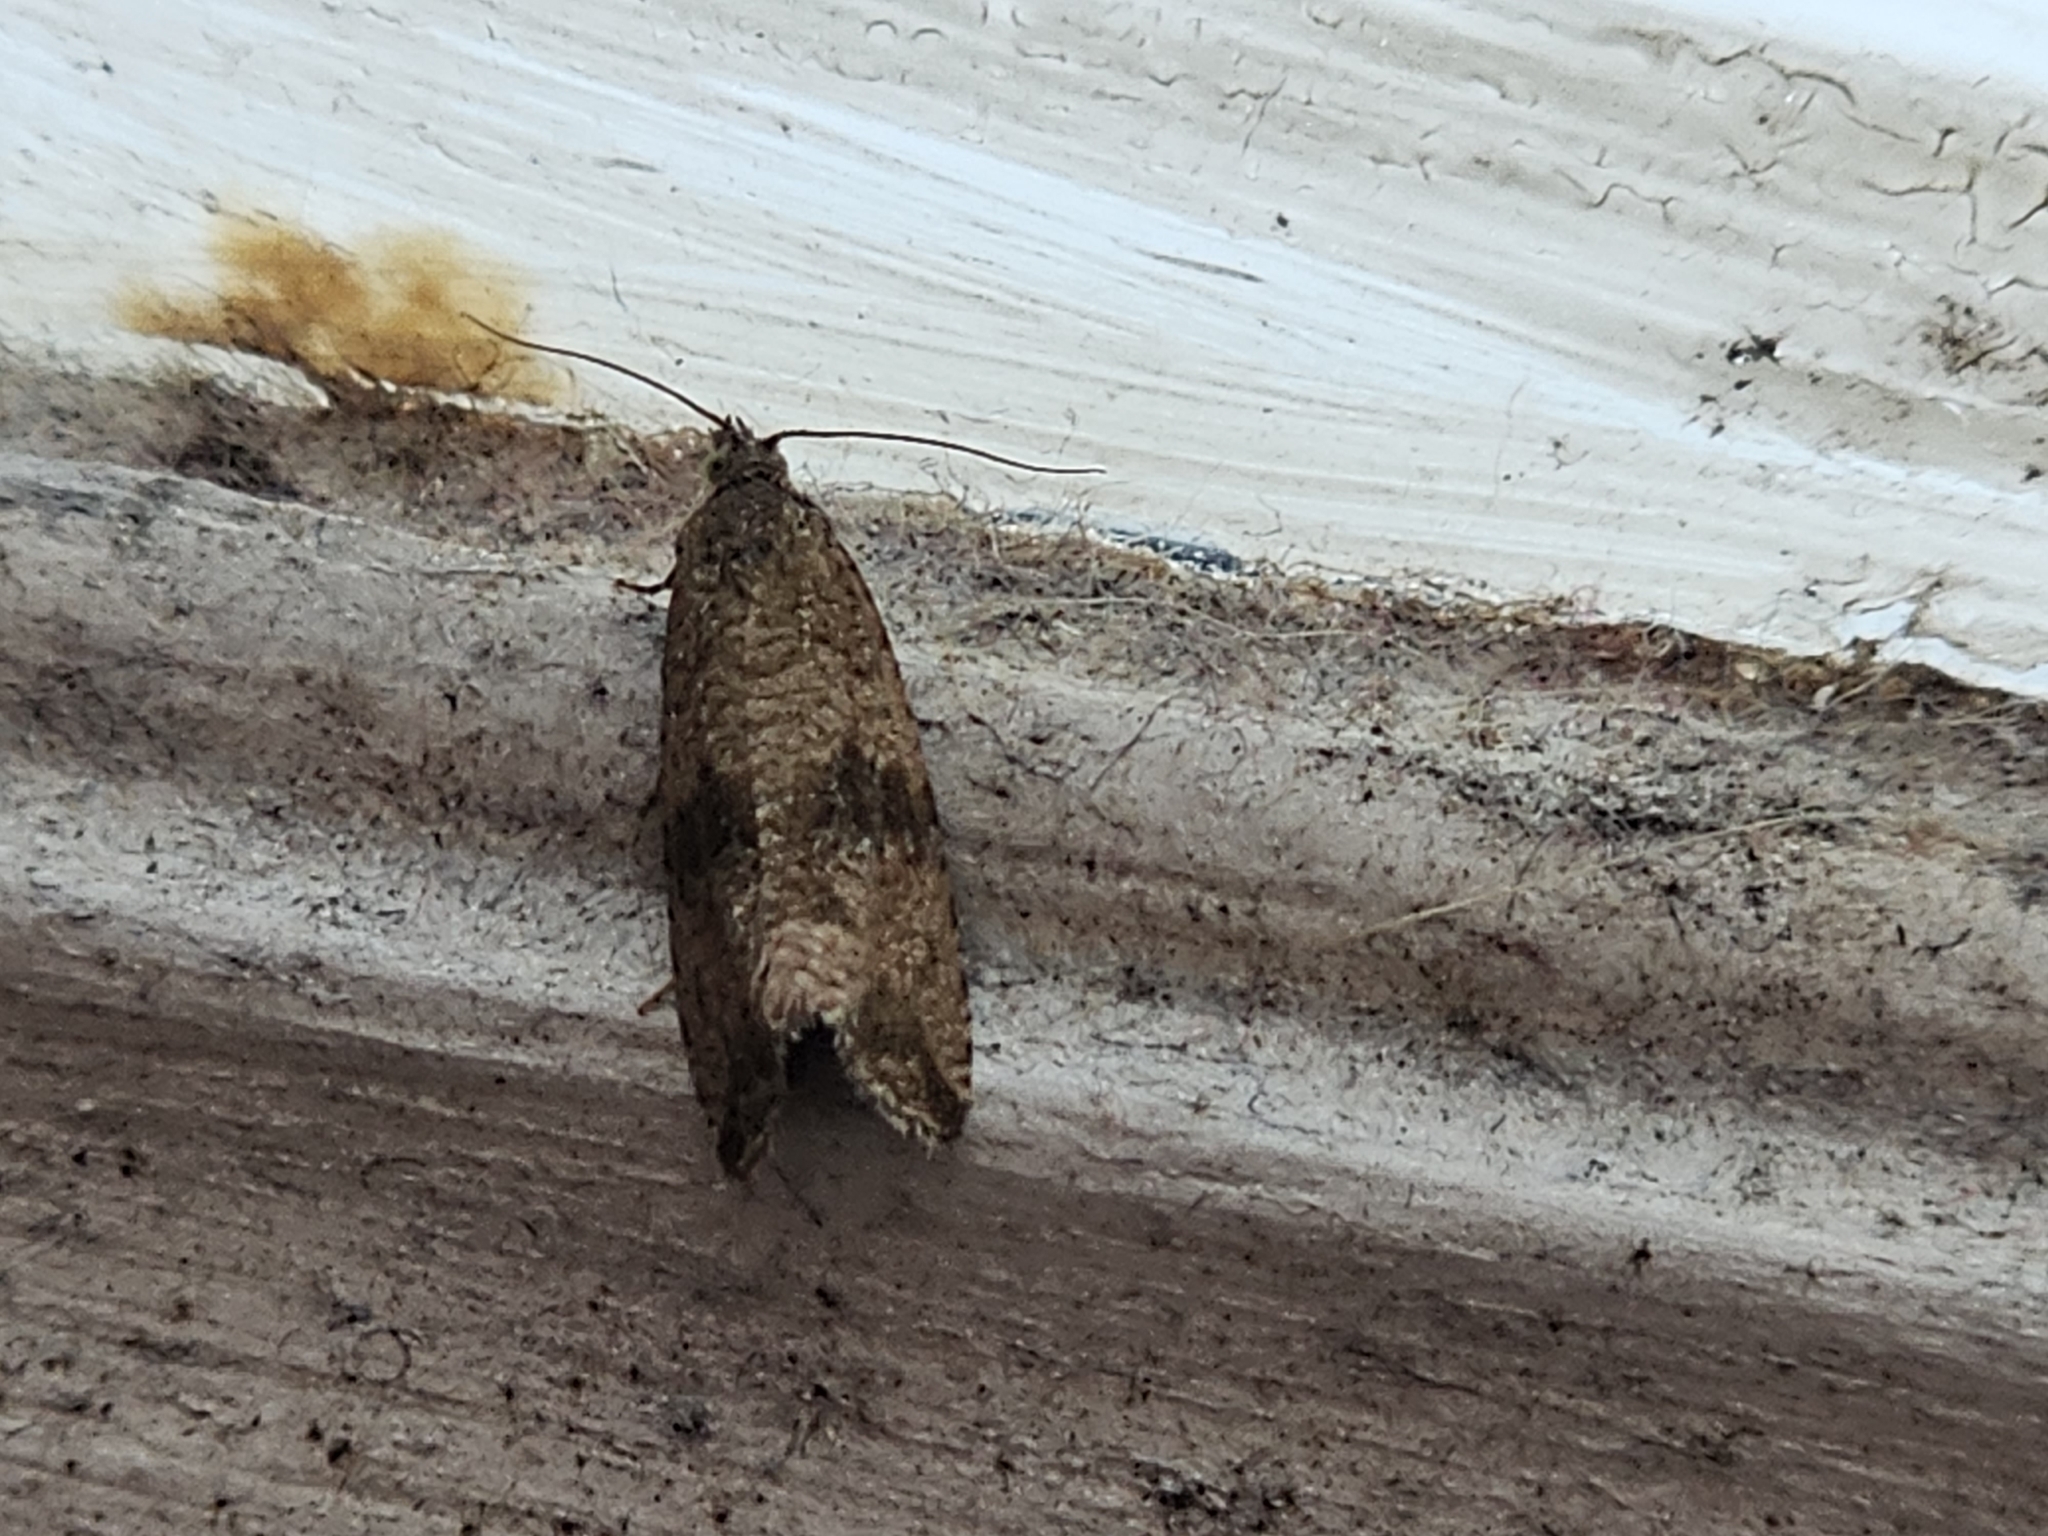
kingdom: Animalia
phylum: Arthropoda
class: Insecta
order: Lepidoptera
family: Tortricidae
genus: Celypha
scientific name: Celypha striana
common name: Barred marble
